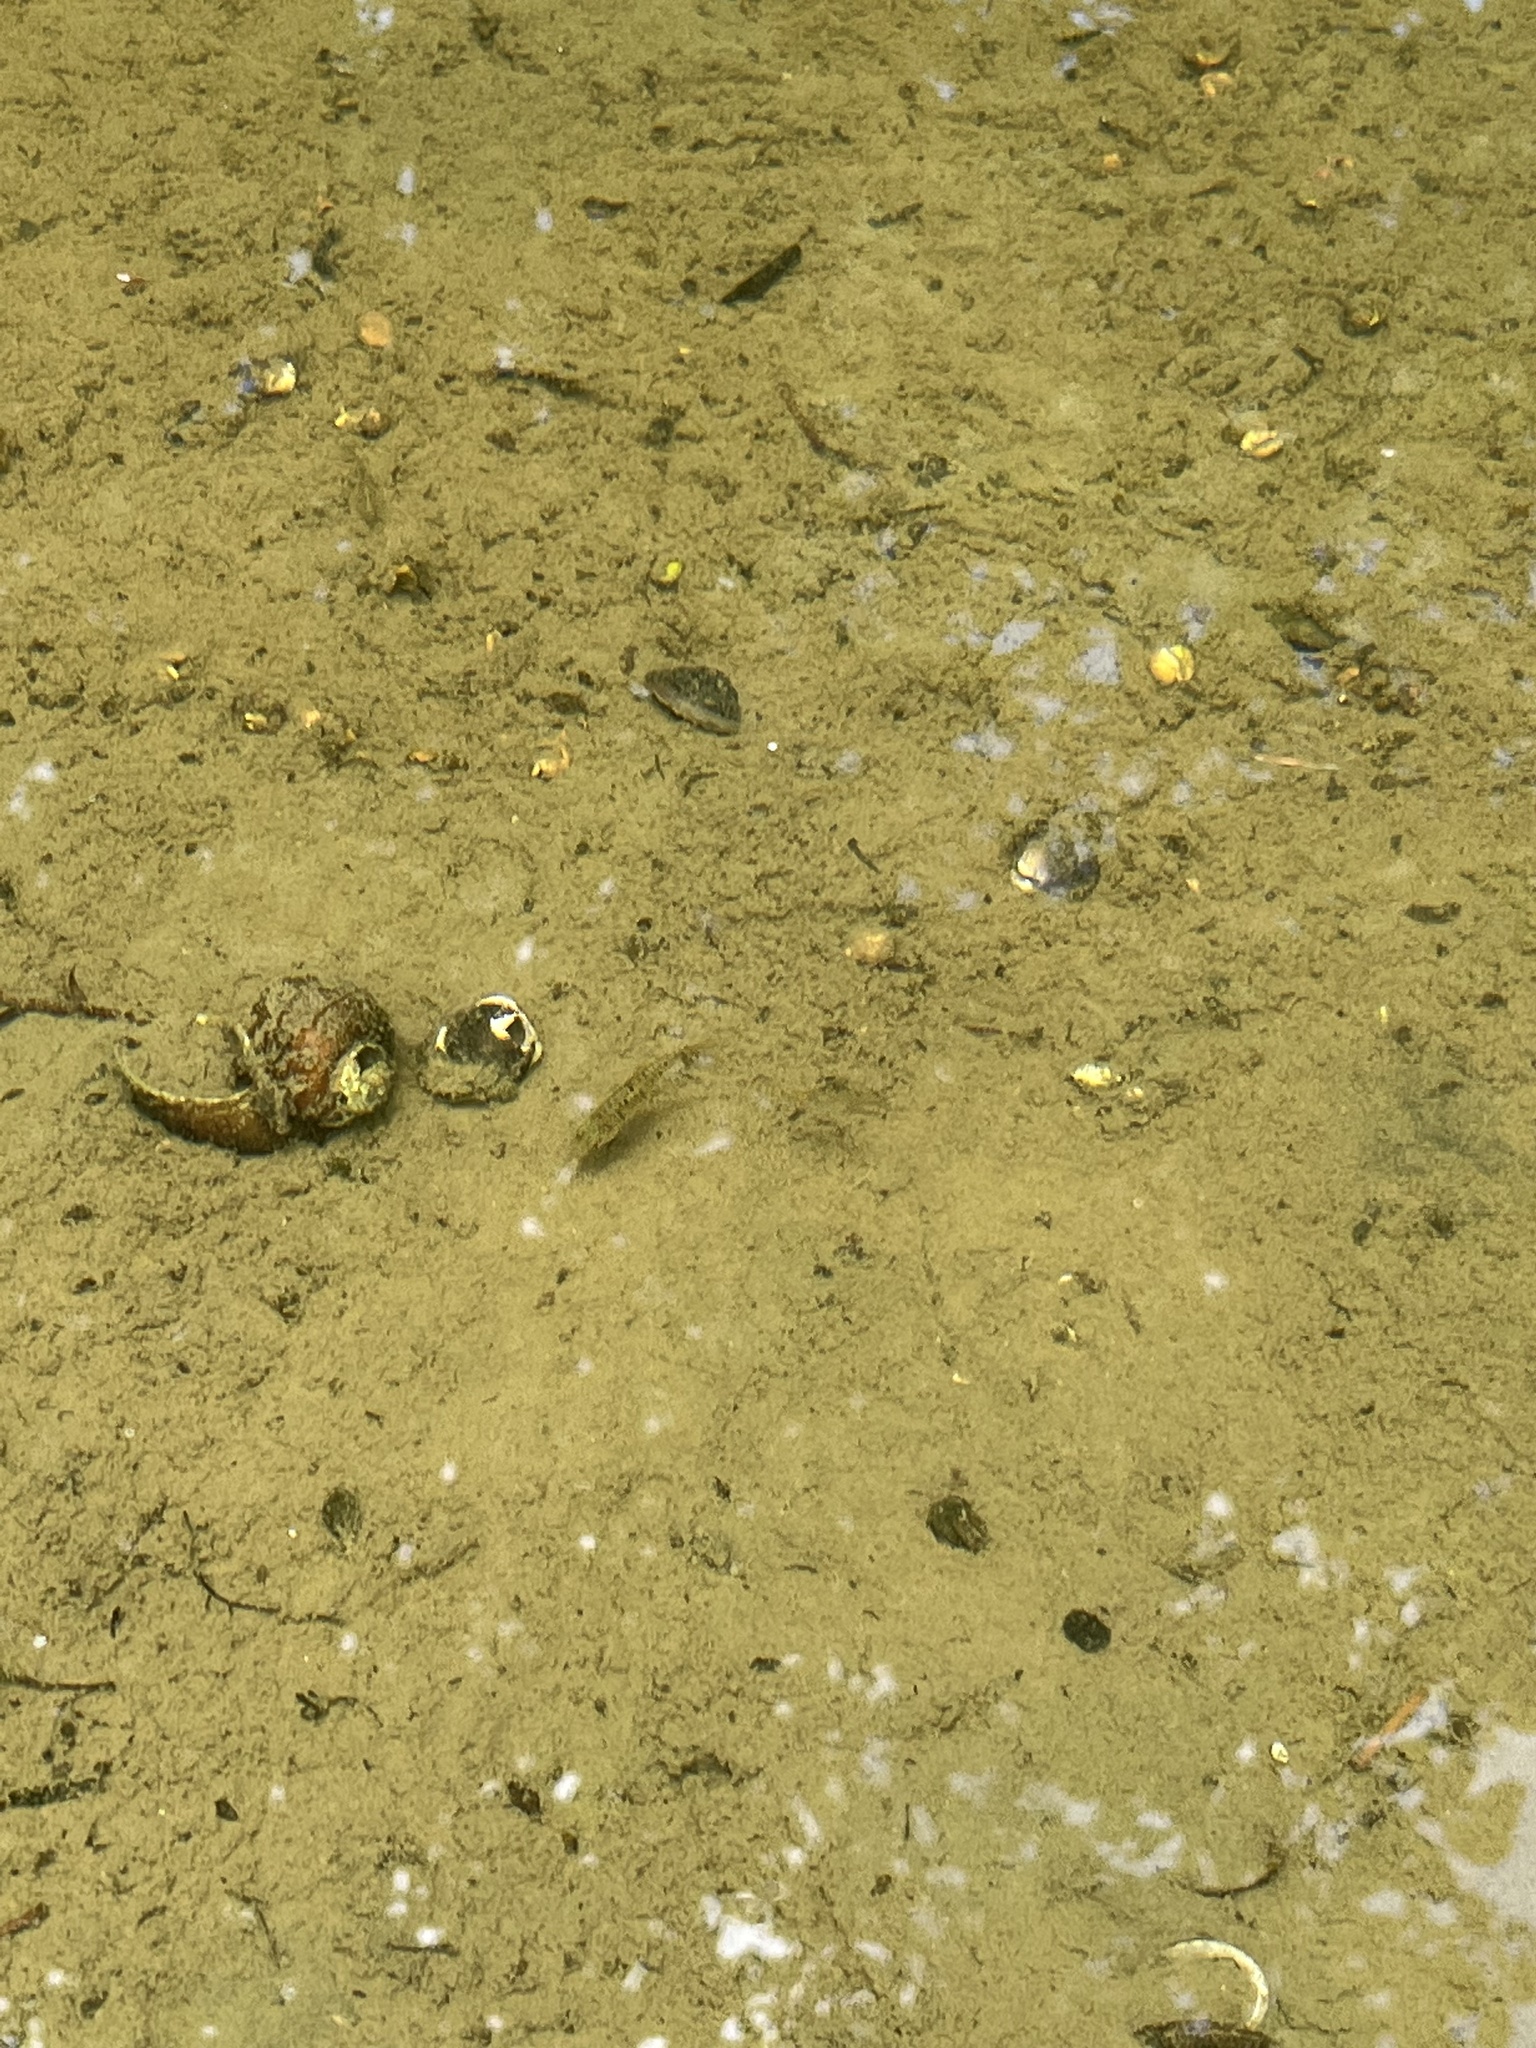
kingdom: Animalia
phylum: Chordata
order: Cypriniformes
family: Cyprinidae
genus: Barbodes
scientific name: Barbodes semifasciolatus
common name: Gold barb
